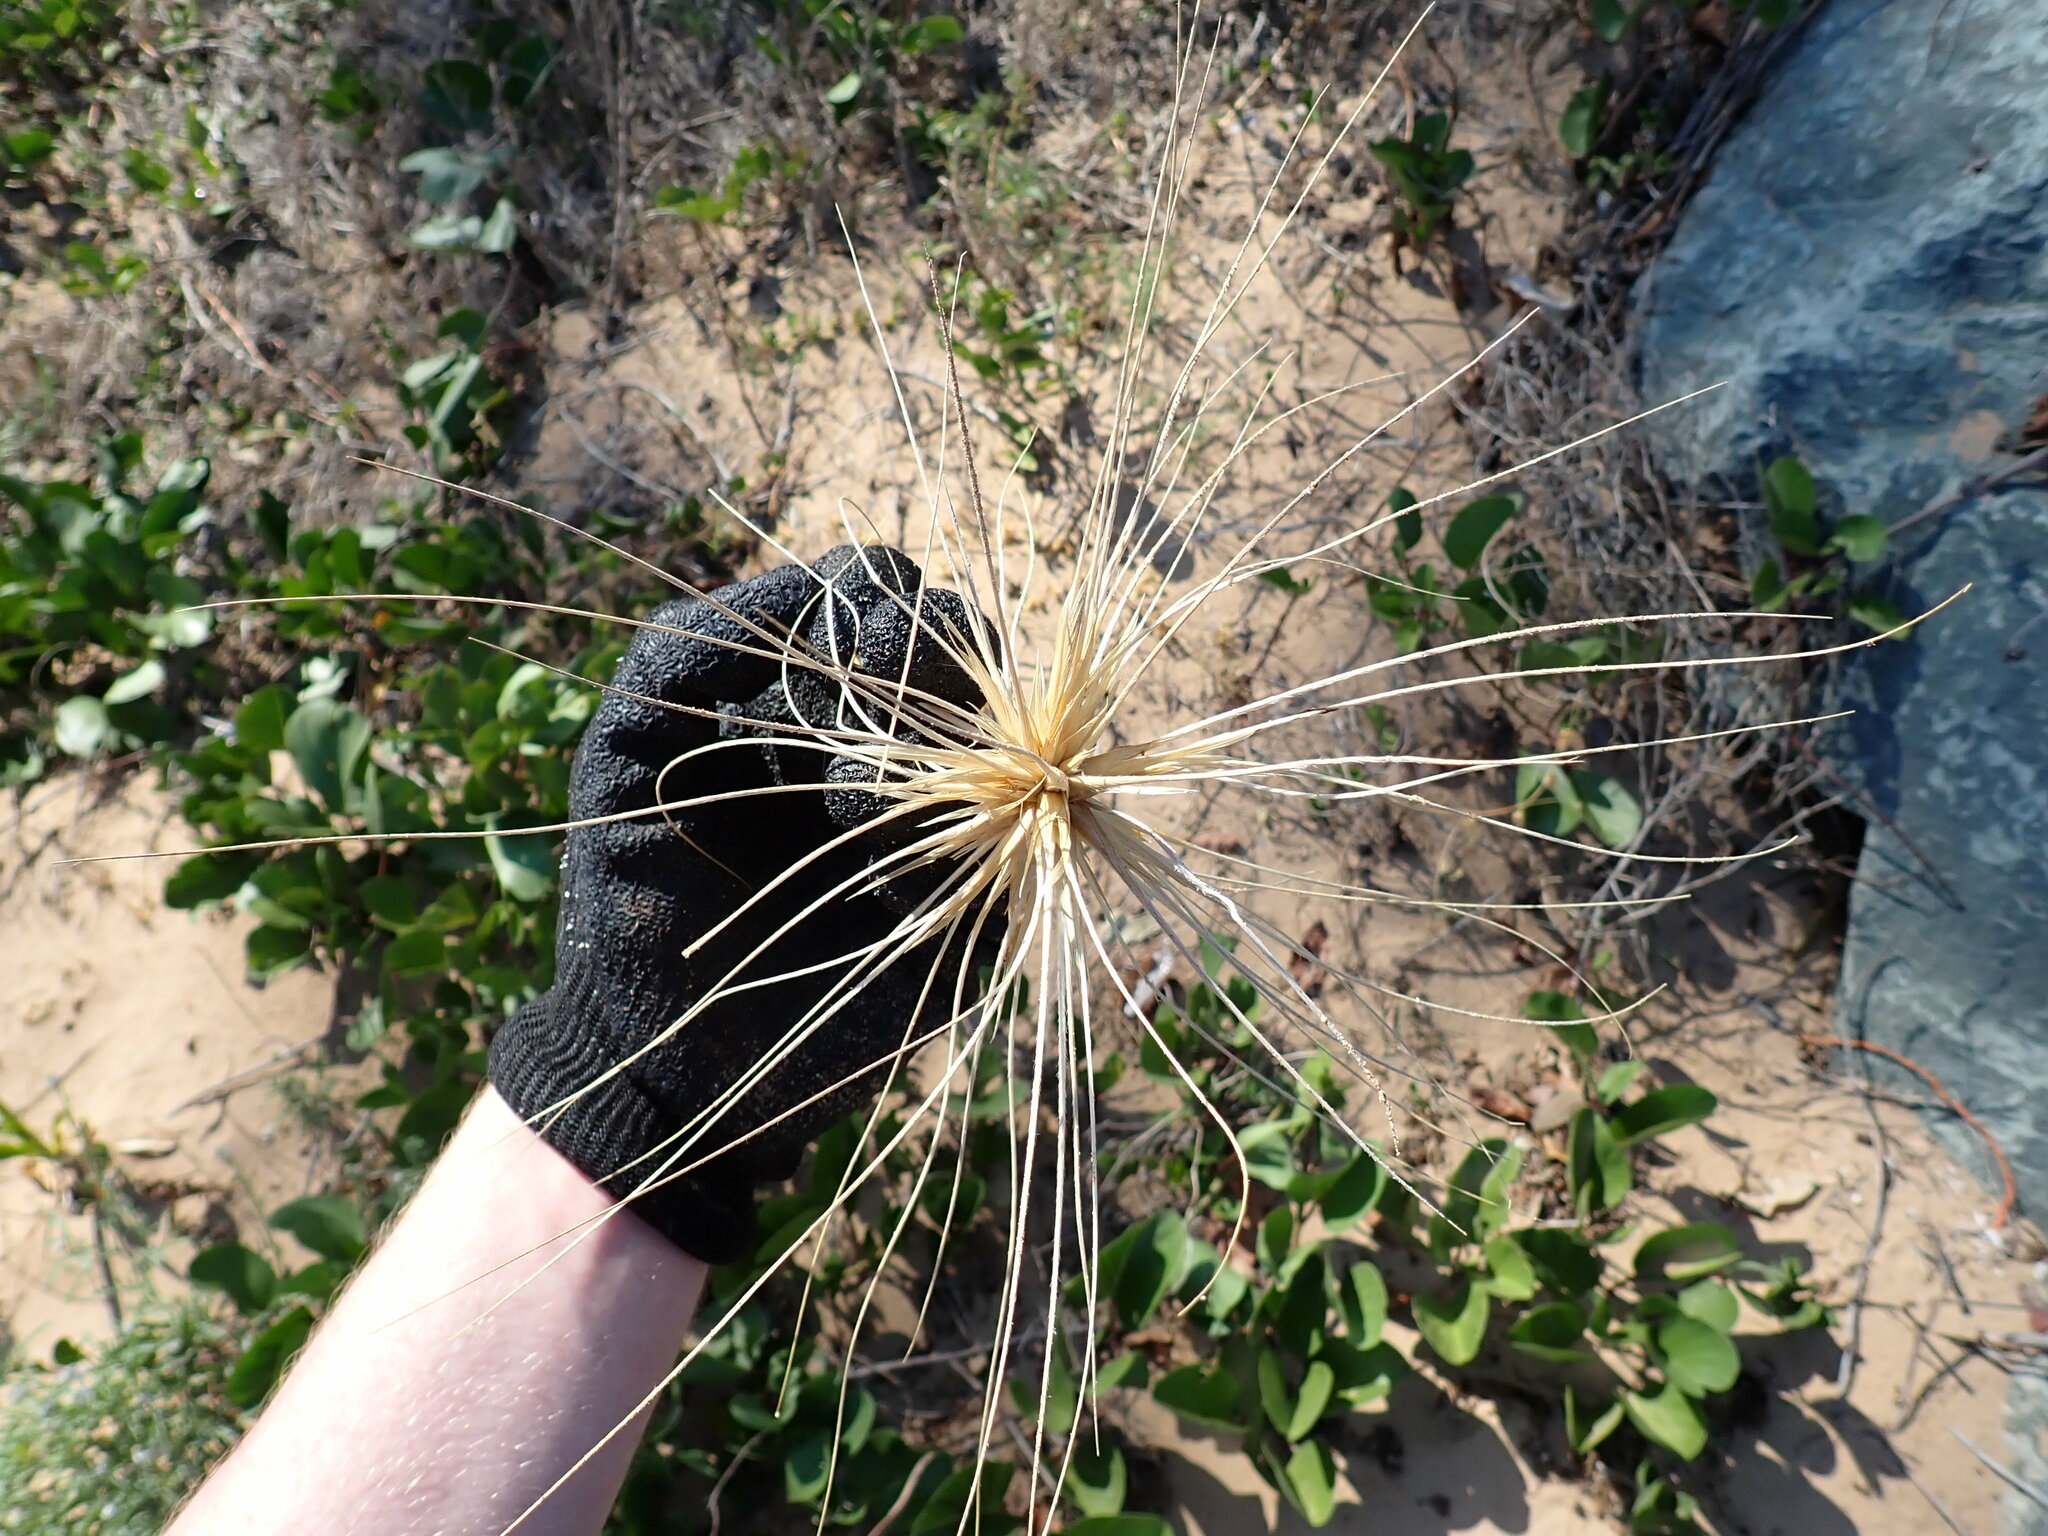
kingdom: Plantae
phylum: Tracheophyta
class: Liliopsida
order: Poales
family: Poaceae
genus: Spinifex
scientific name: Spinifex sericeus
